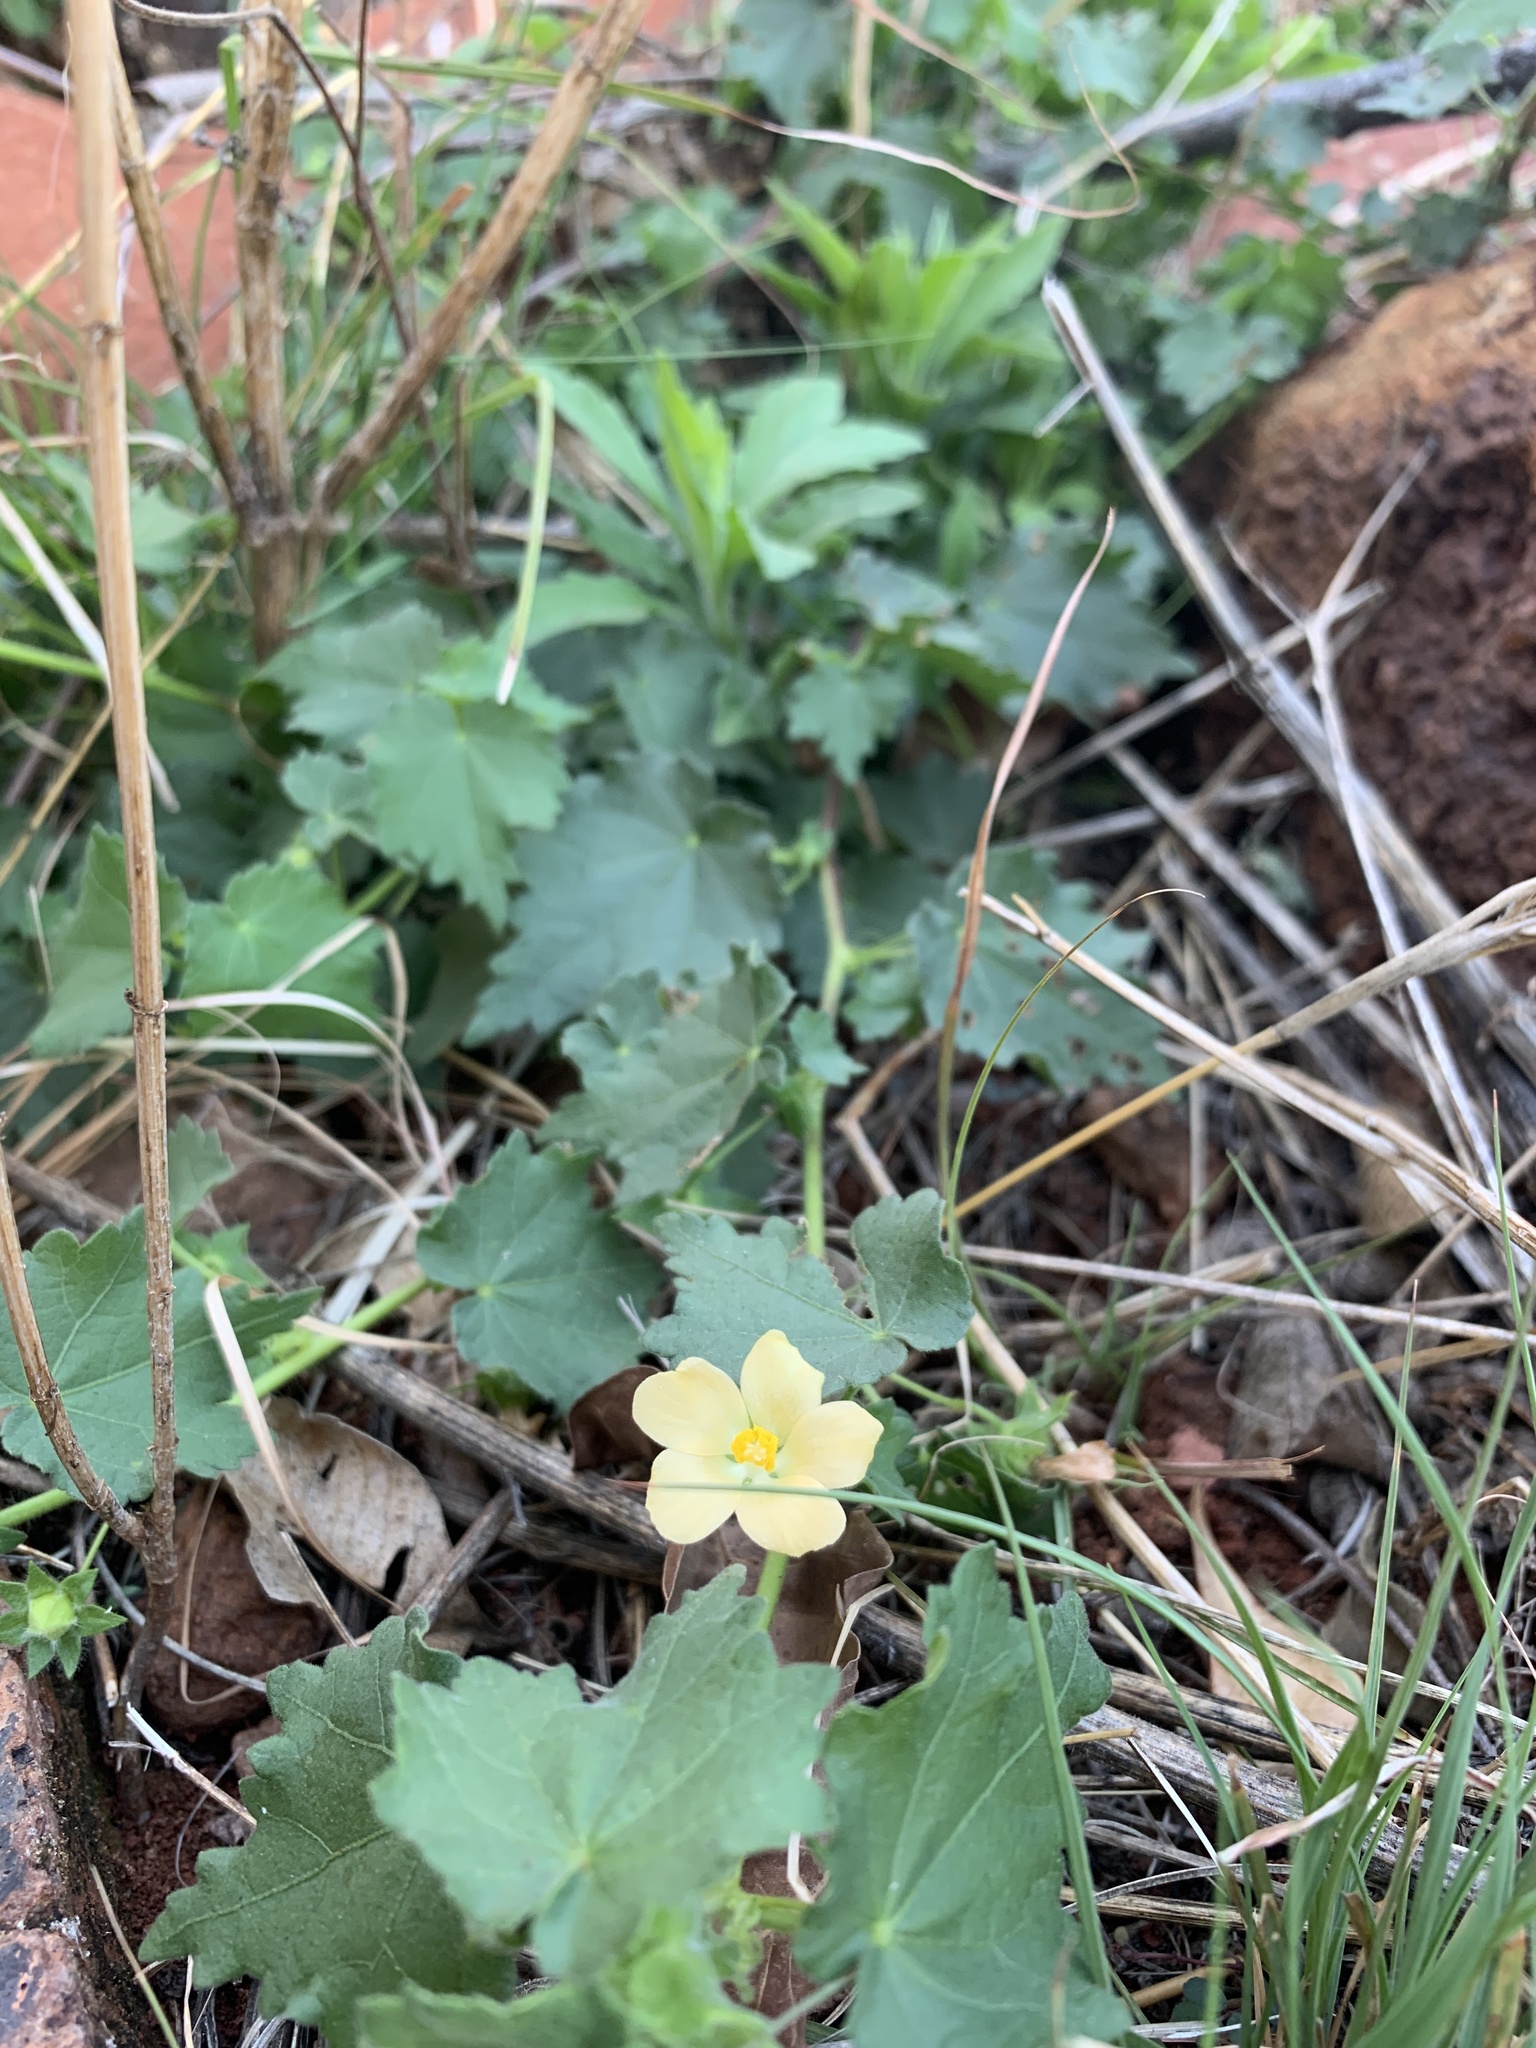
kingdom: Plantae
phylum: Tracheophyta
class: Magnoliopsida
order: Malvales
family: Malvaceae
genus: Pavonia
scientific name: Pavonia burchellii
